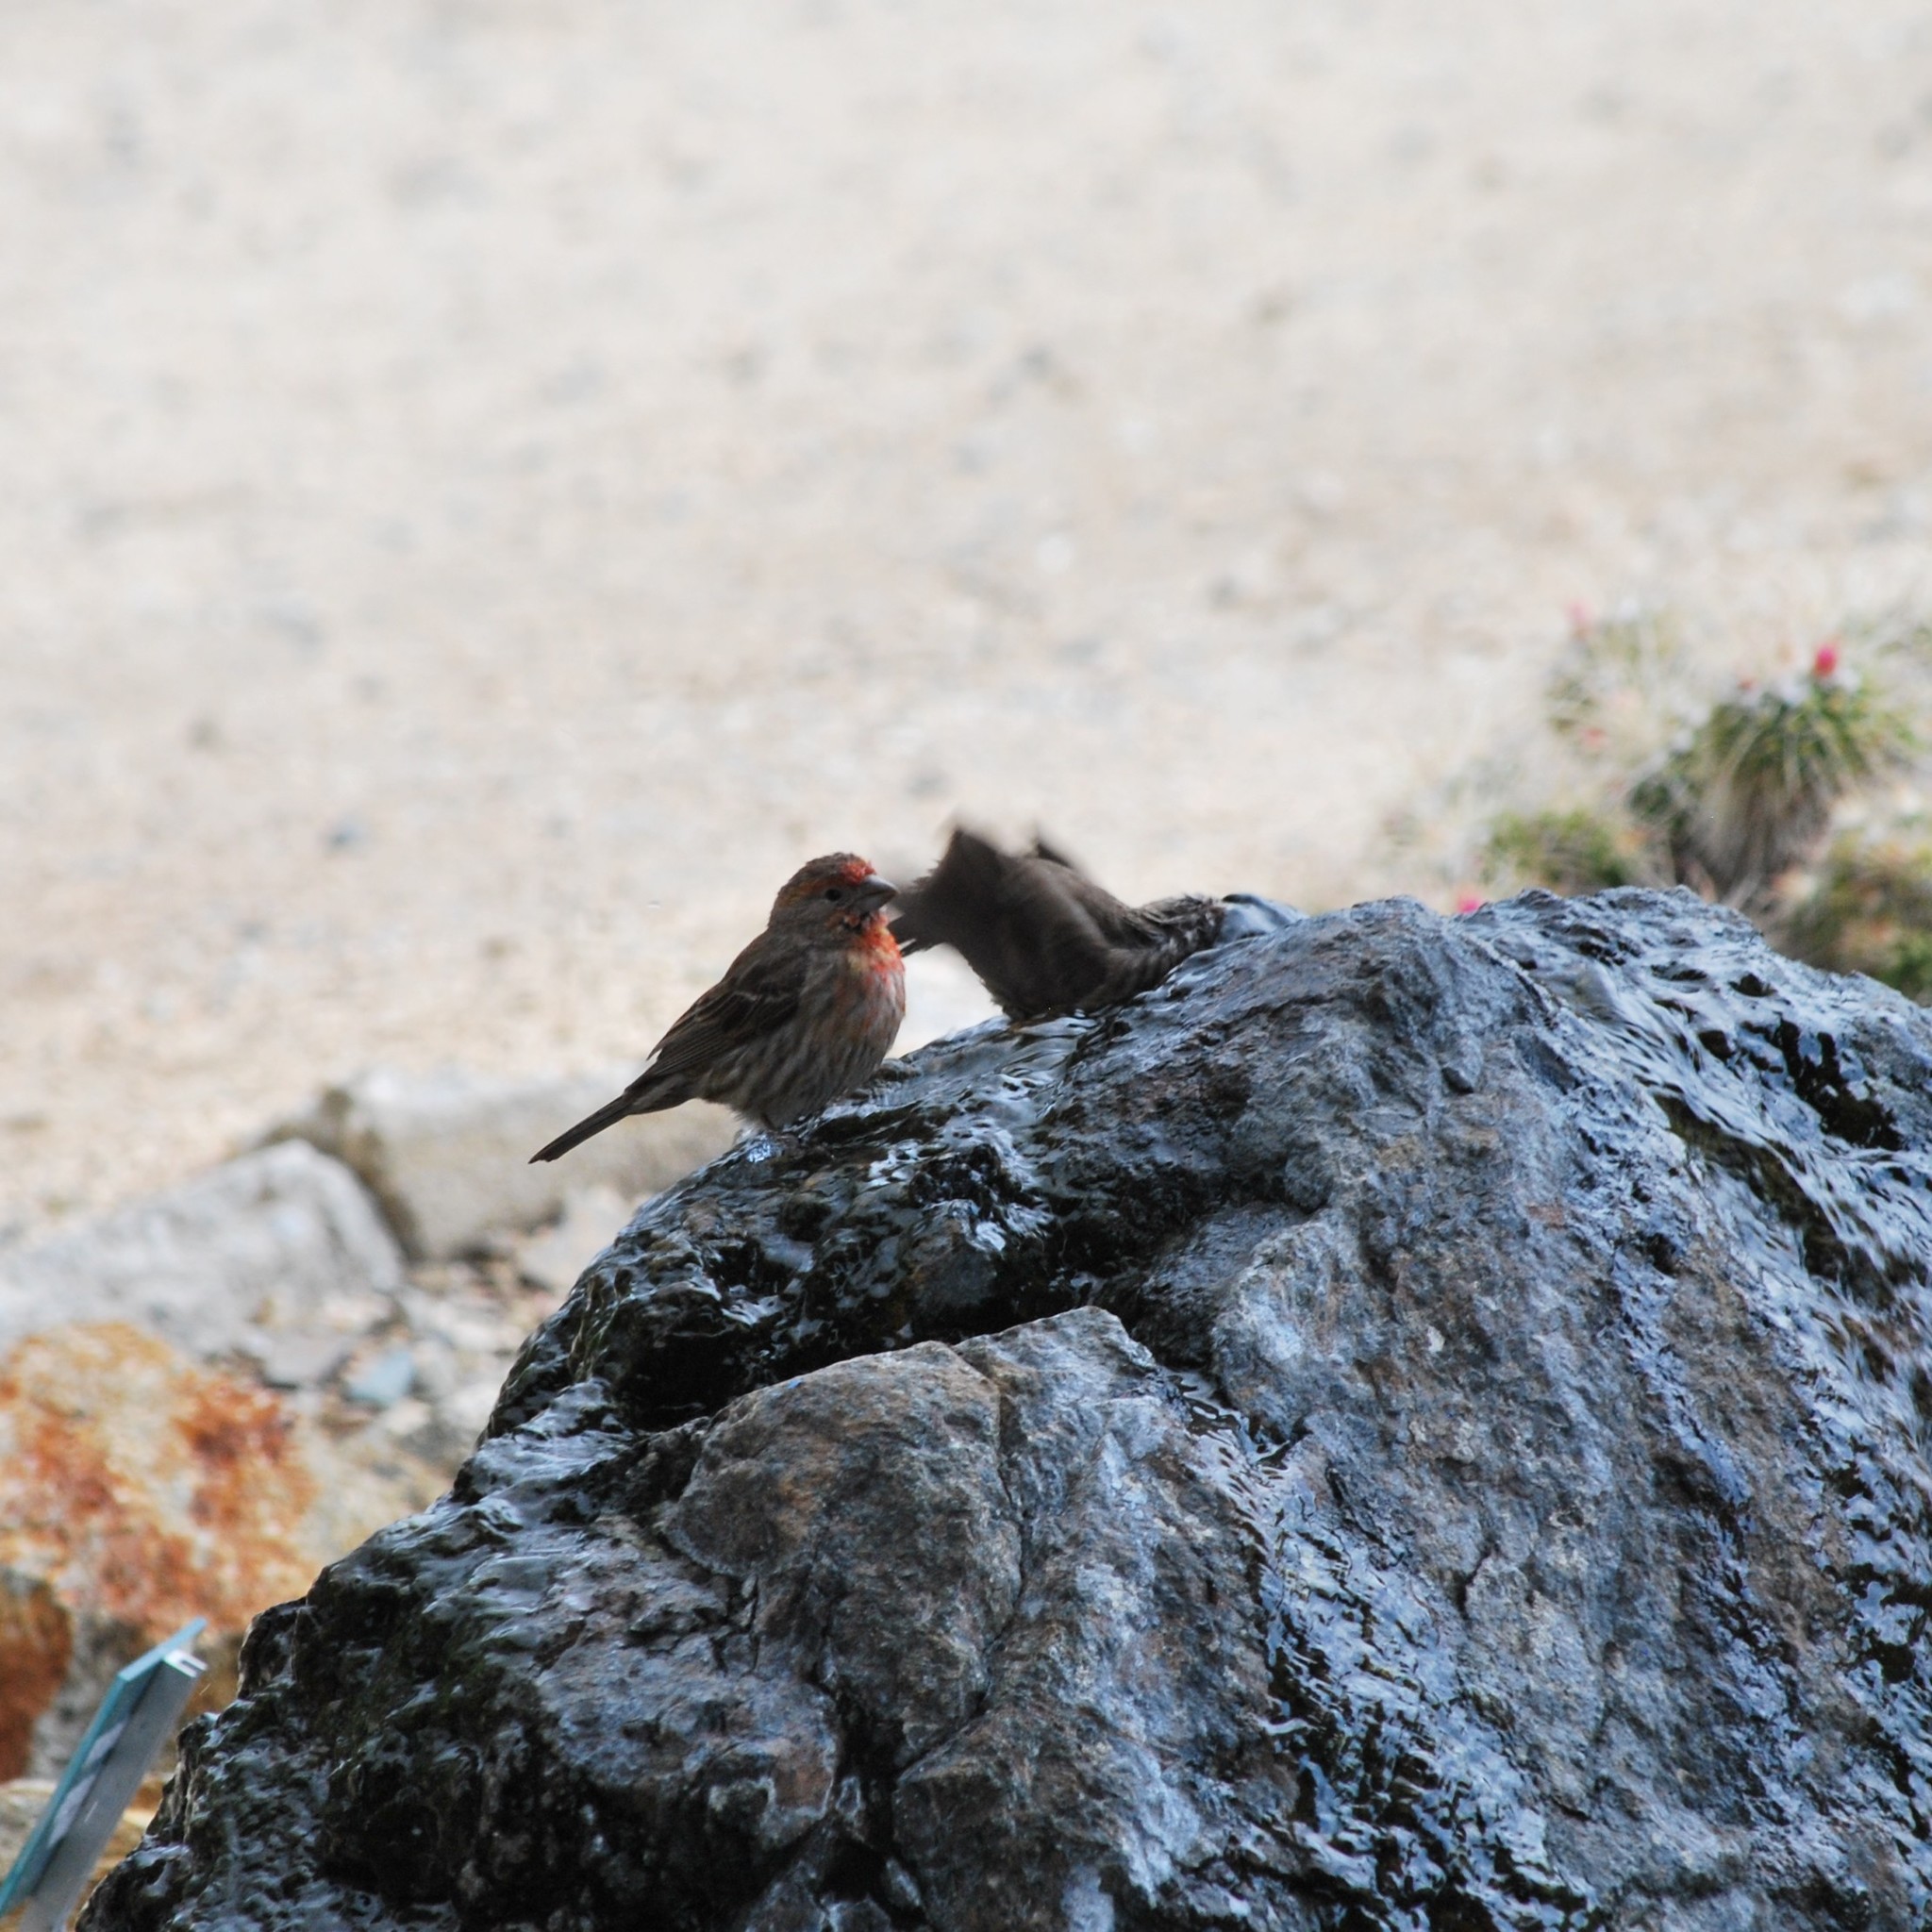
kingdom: Animalia
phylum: Chordata
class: Aves
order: Passeriformes
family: Fringillidae
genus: Haemorhous
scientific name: Haemorhous mexicanus
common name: House finch
